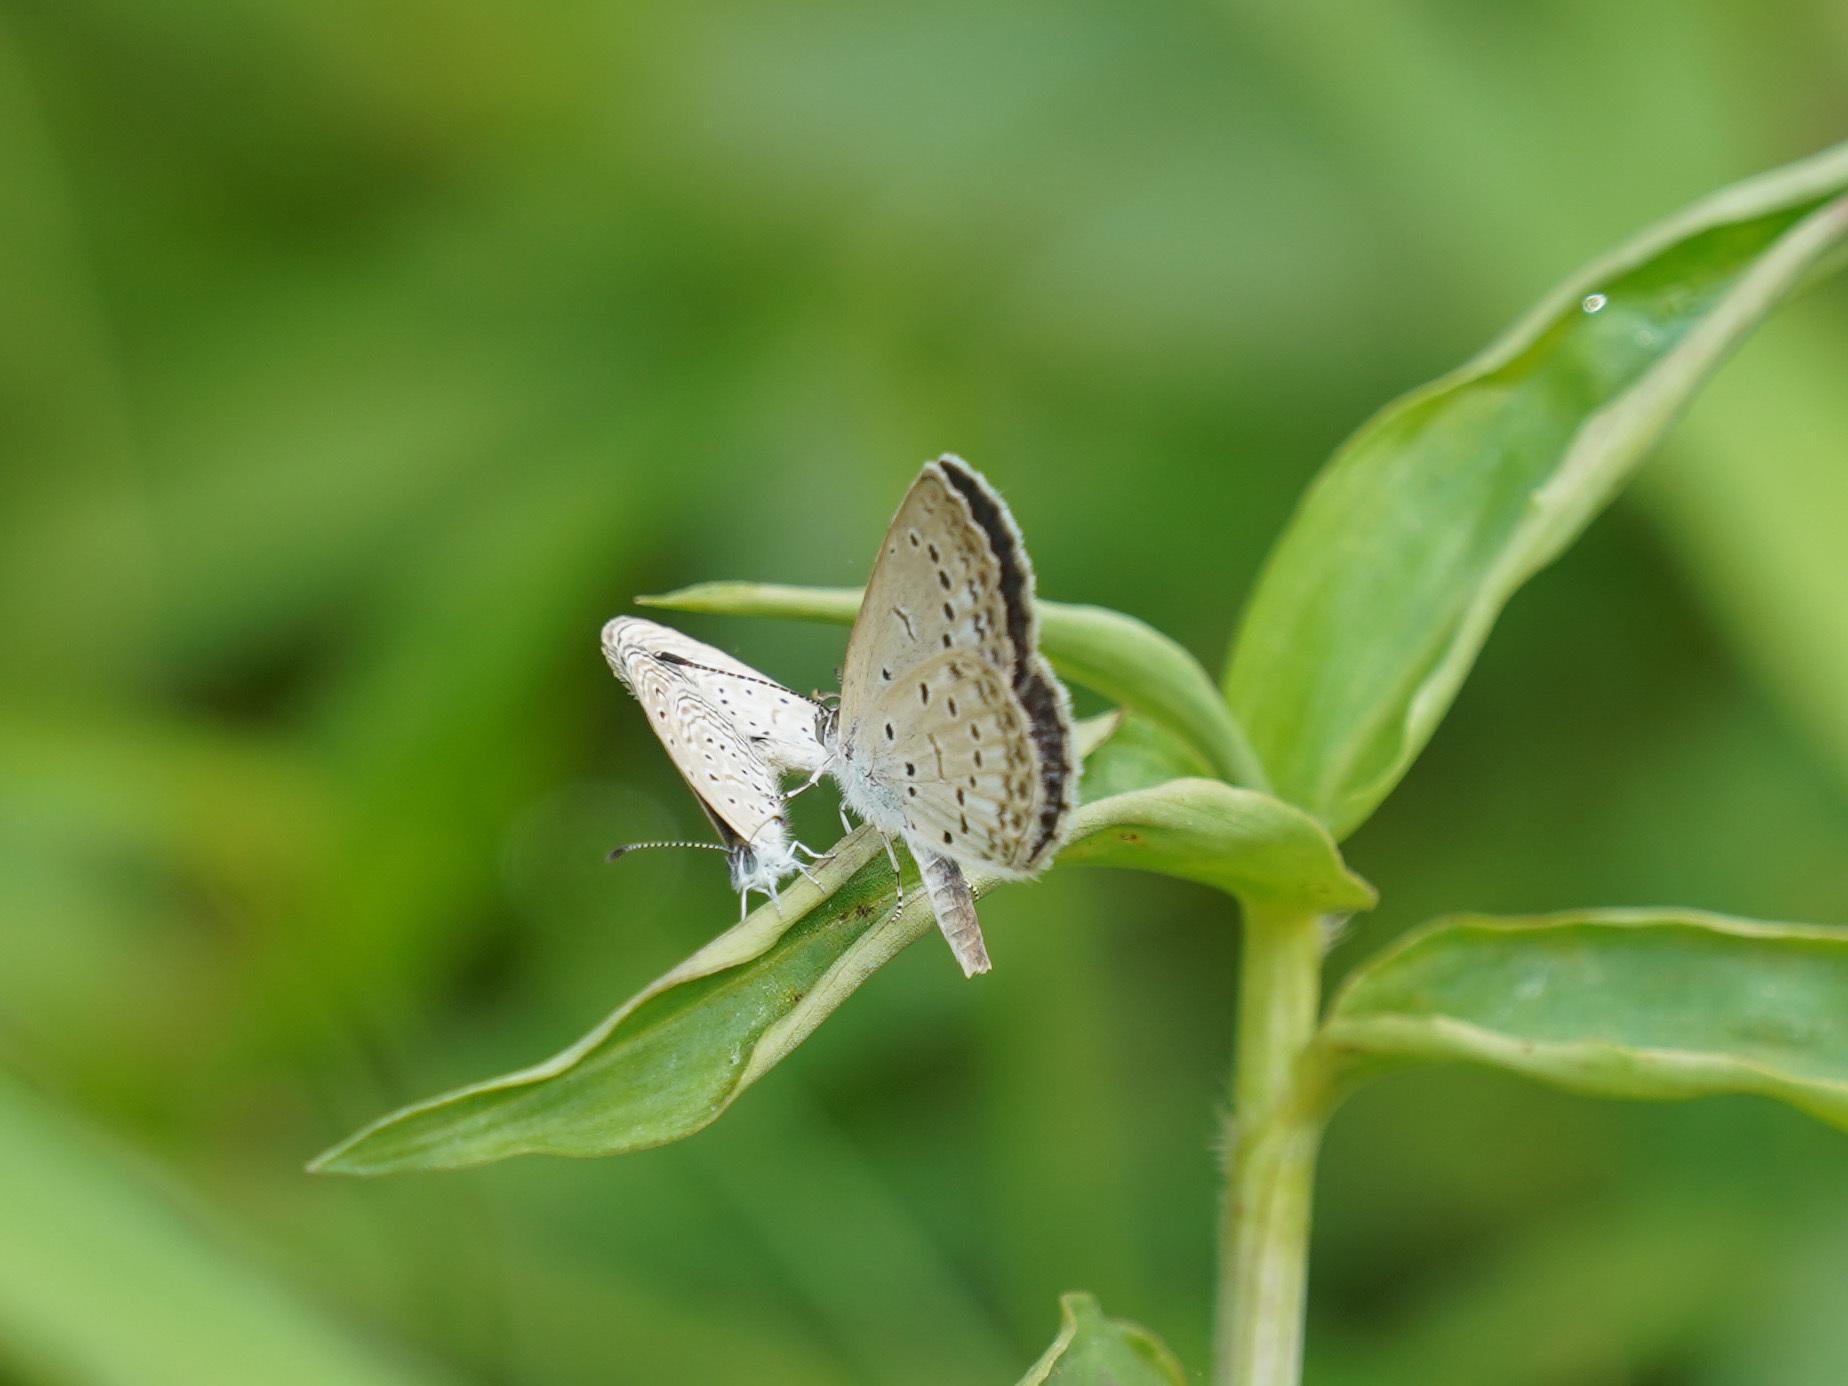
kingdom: Animalia
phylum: Arthropoda
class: Insecta
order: Lepidoptera
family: Lycaenidae
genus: Pseudozizeeria
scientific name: Pseudozizeeria maha
